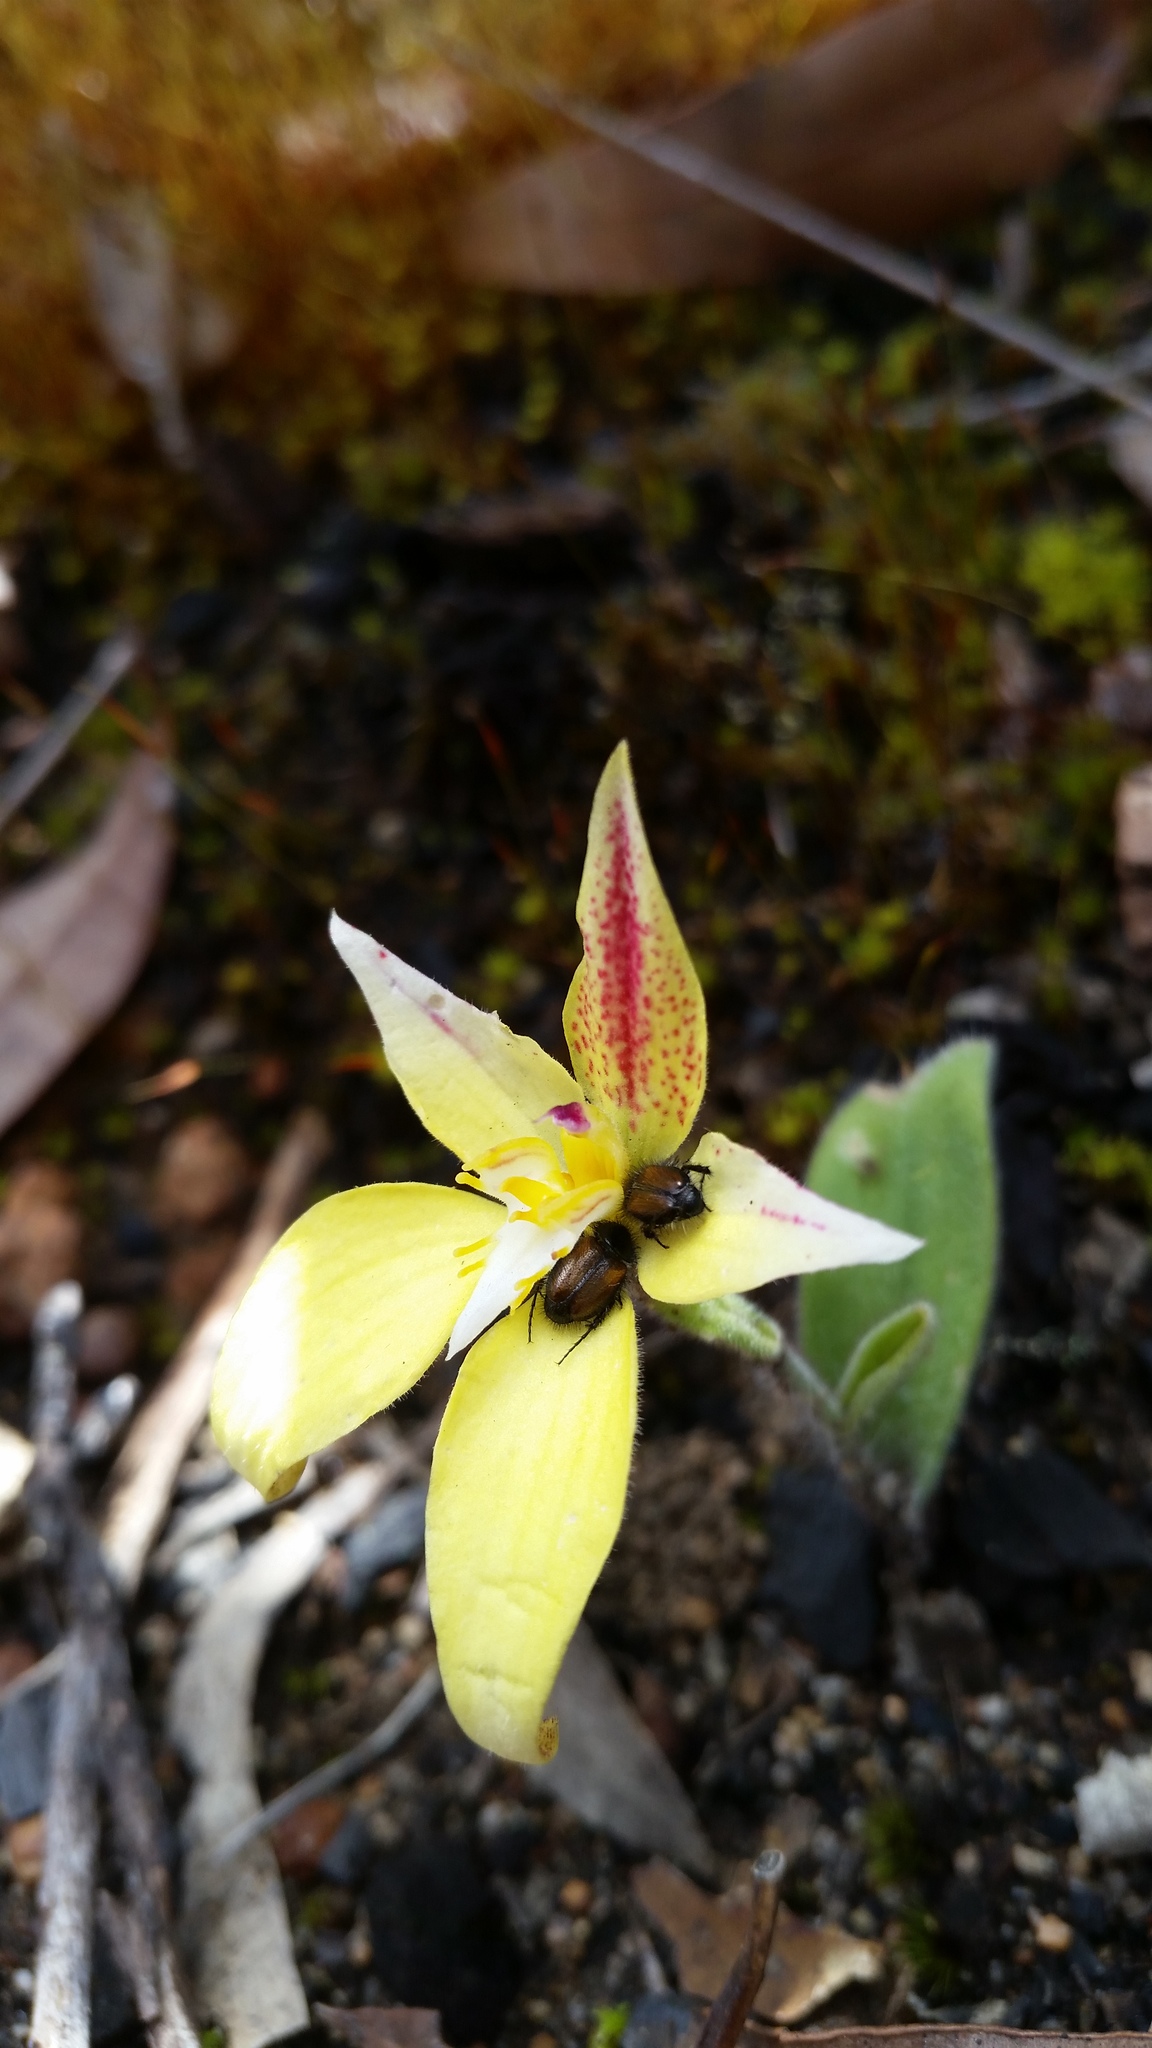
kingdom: Plantae
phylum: Tracheophyta
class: Liliopsida
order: Asparagales
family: Orchidaceae
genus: Caladenia
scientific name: Caladenia flava
